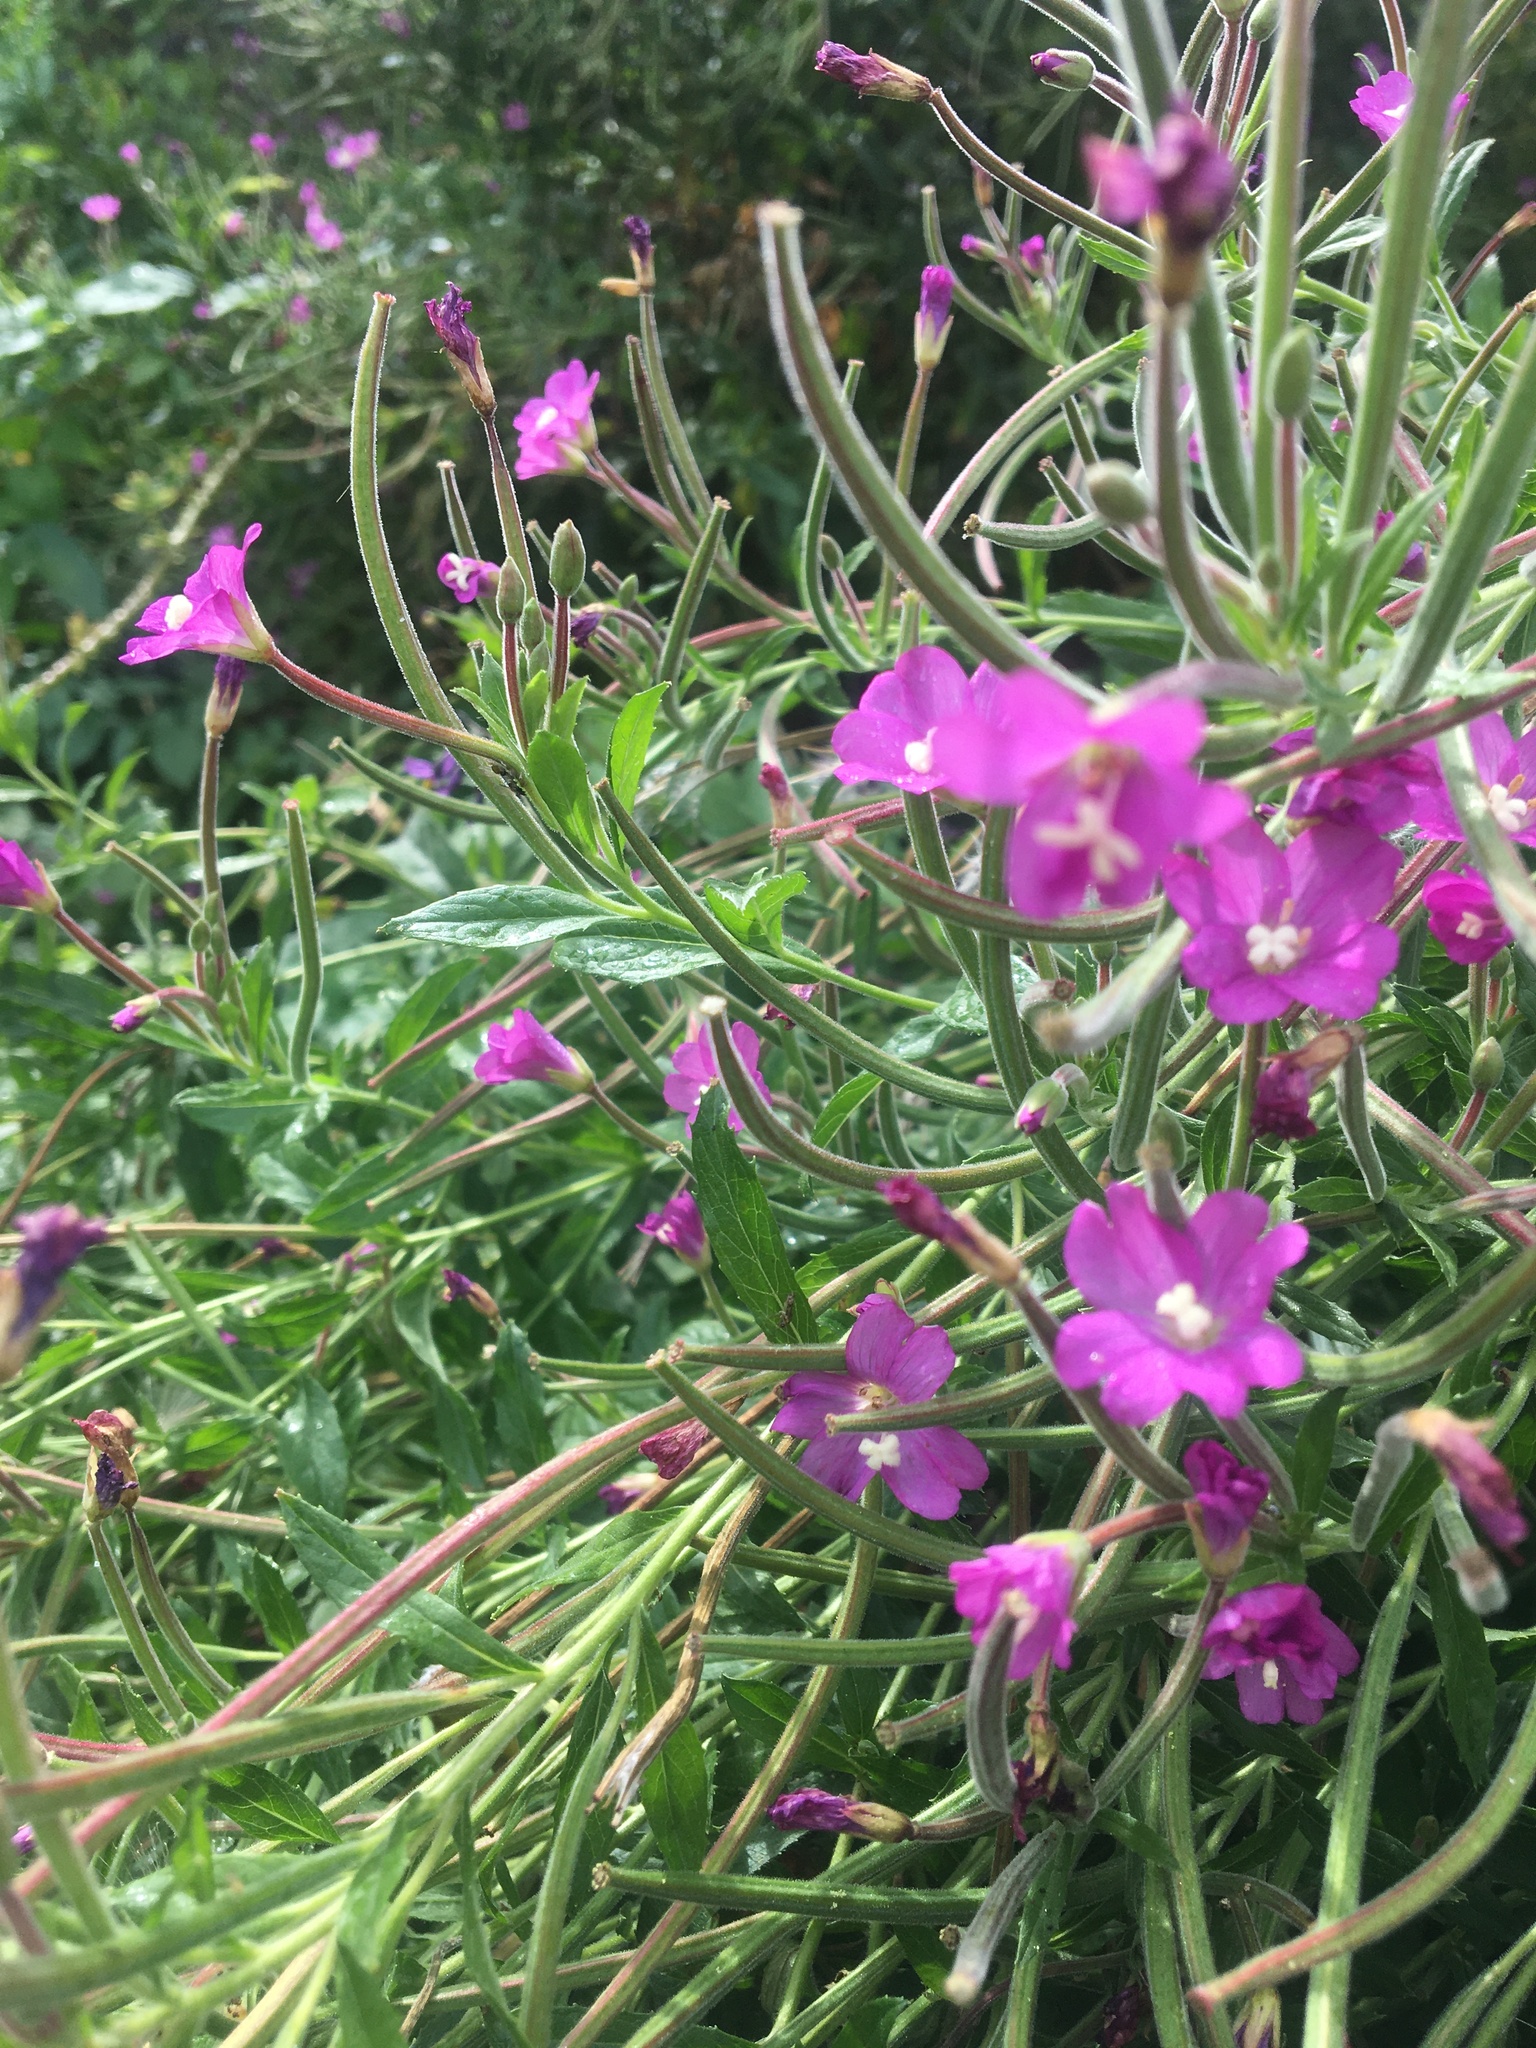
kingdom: Plantae
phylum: Tracheophyta
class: Magnoliopsida
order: Myrtales
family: Onagraceae
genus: Epilobium
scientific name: Epilobium hirsutum
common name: Great willowherb
